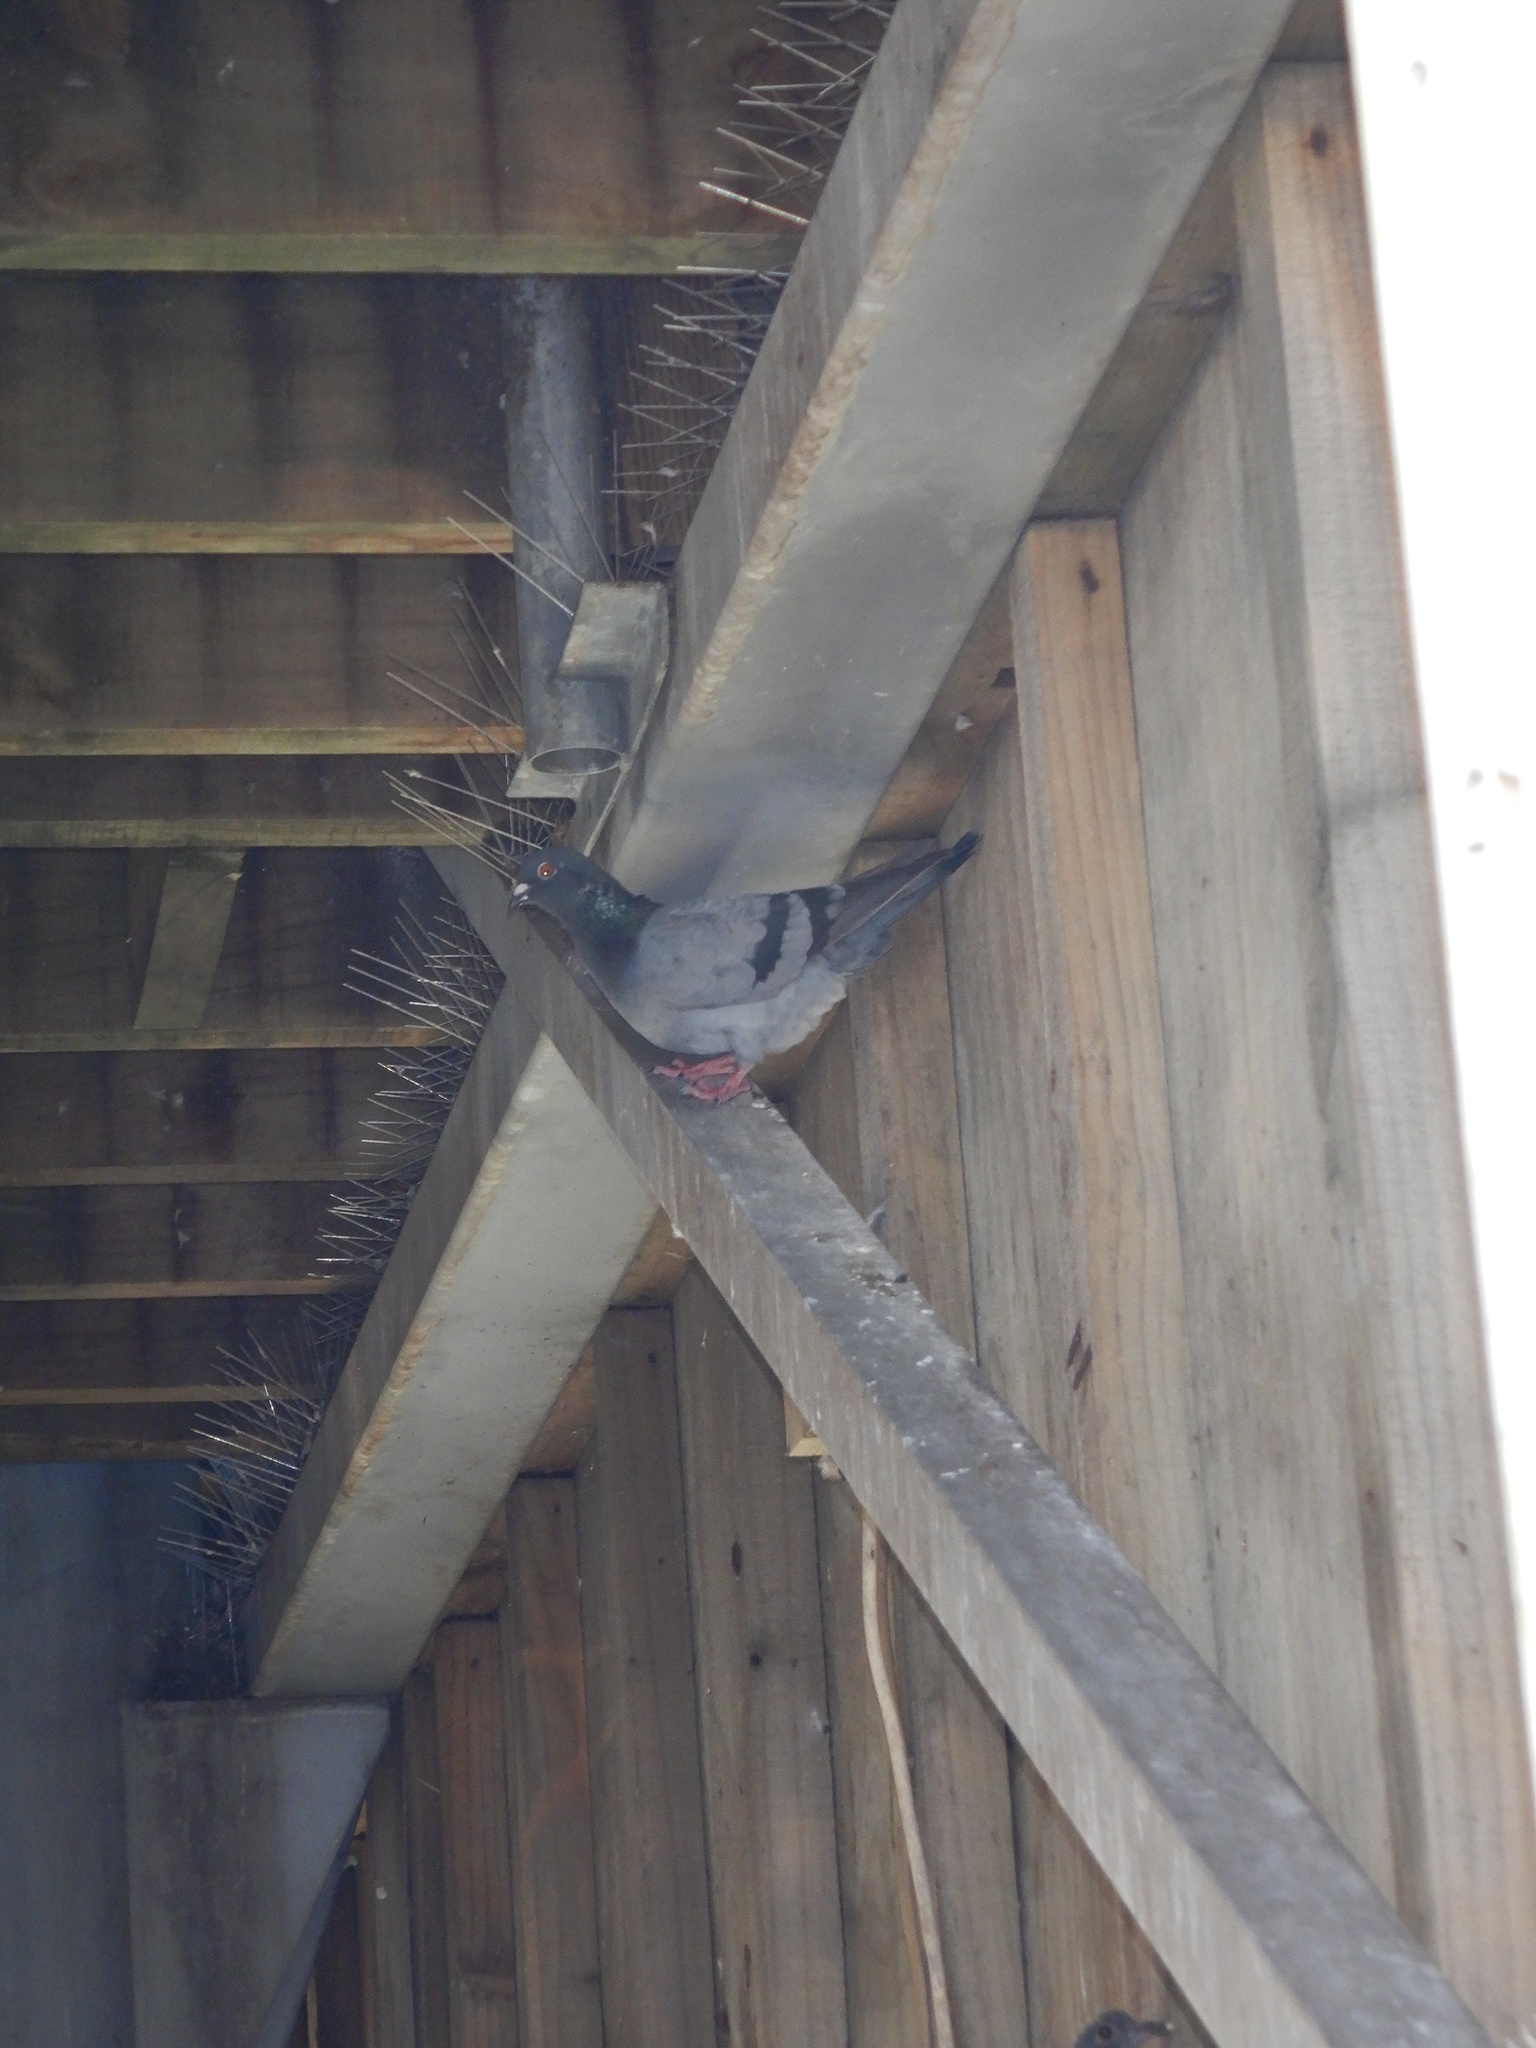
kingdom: Animalia
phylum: Chordata
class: Aves
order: Columbiformes
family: Columbidae
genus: Columba
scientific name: Columba livia
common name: Rock pigeon
